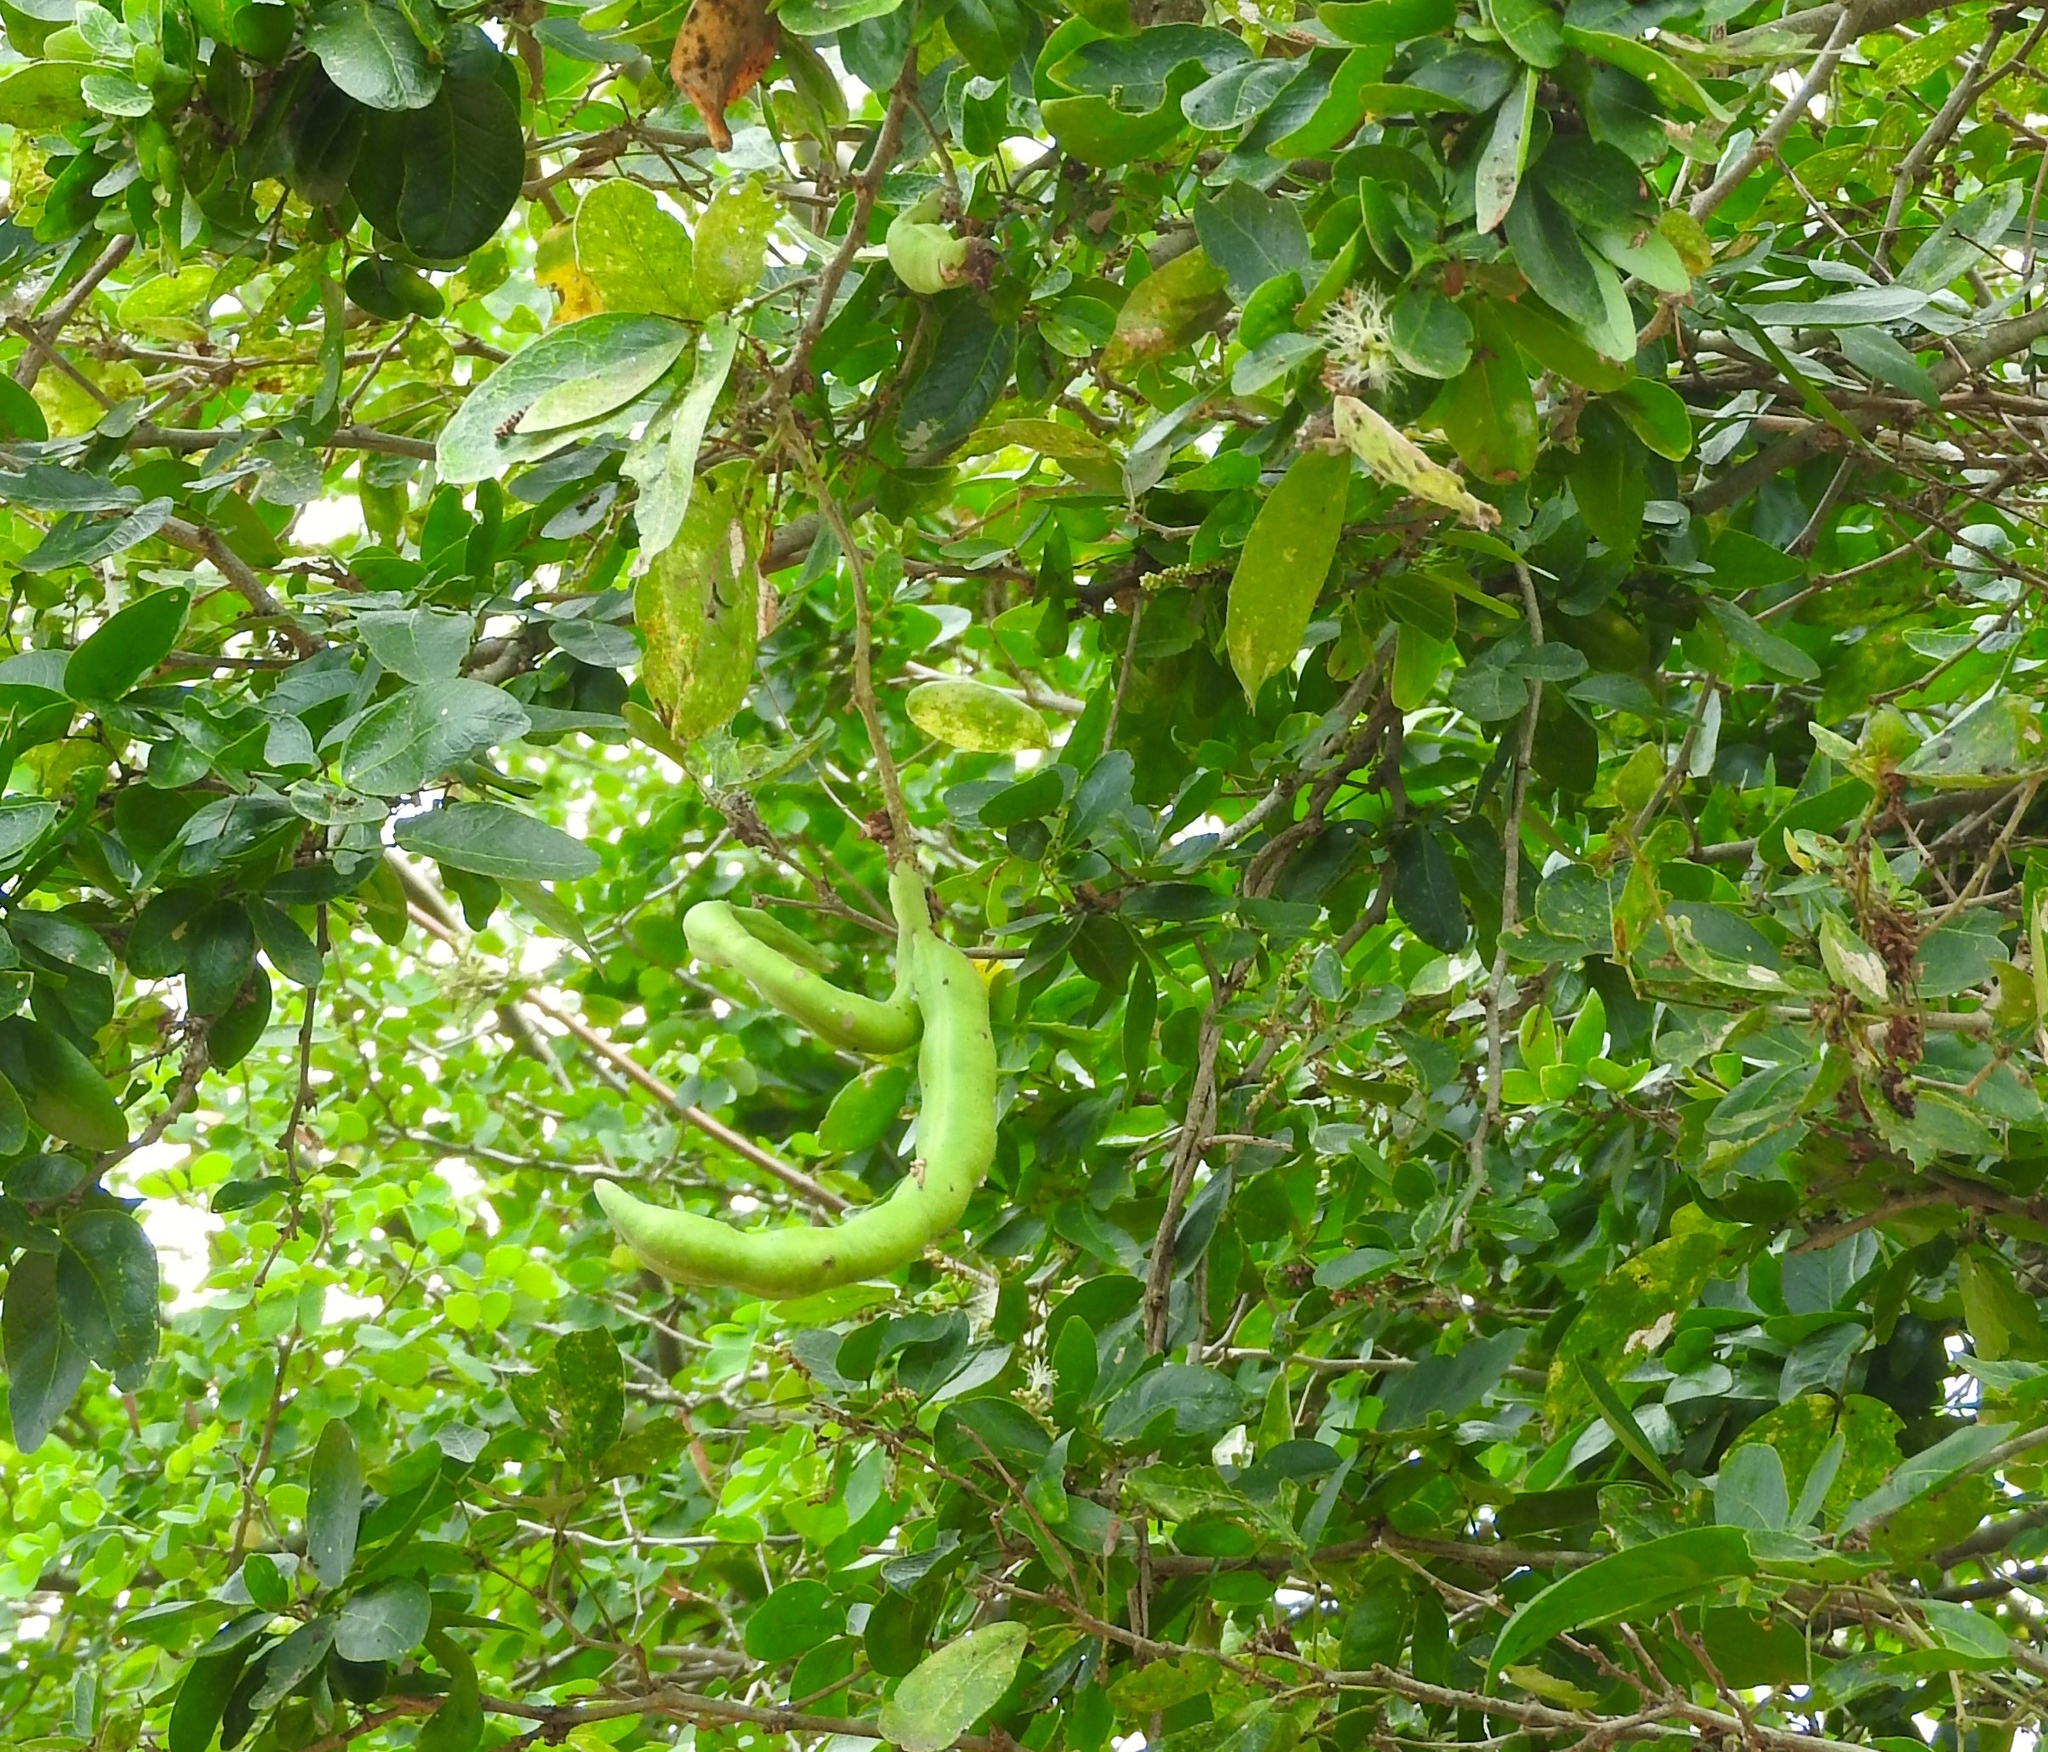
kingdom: Plantae
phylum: Tracheophyta
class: Magnoliopsida
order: Fabales
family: Fabaceae
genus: Pithecellobium
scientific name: Pithecellobium lanceolatum
